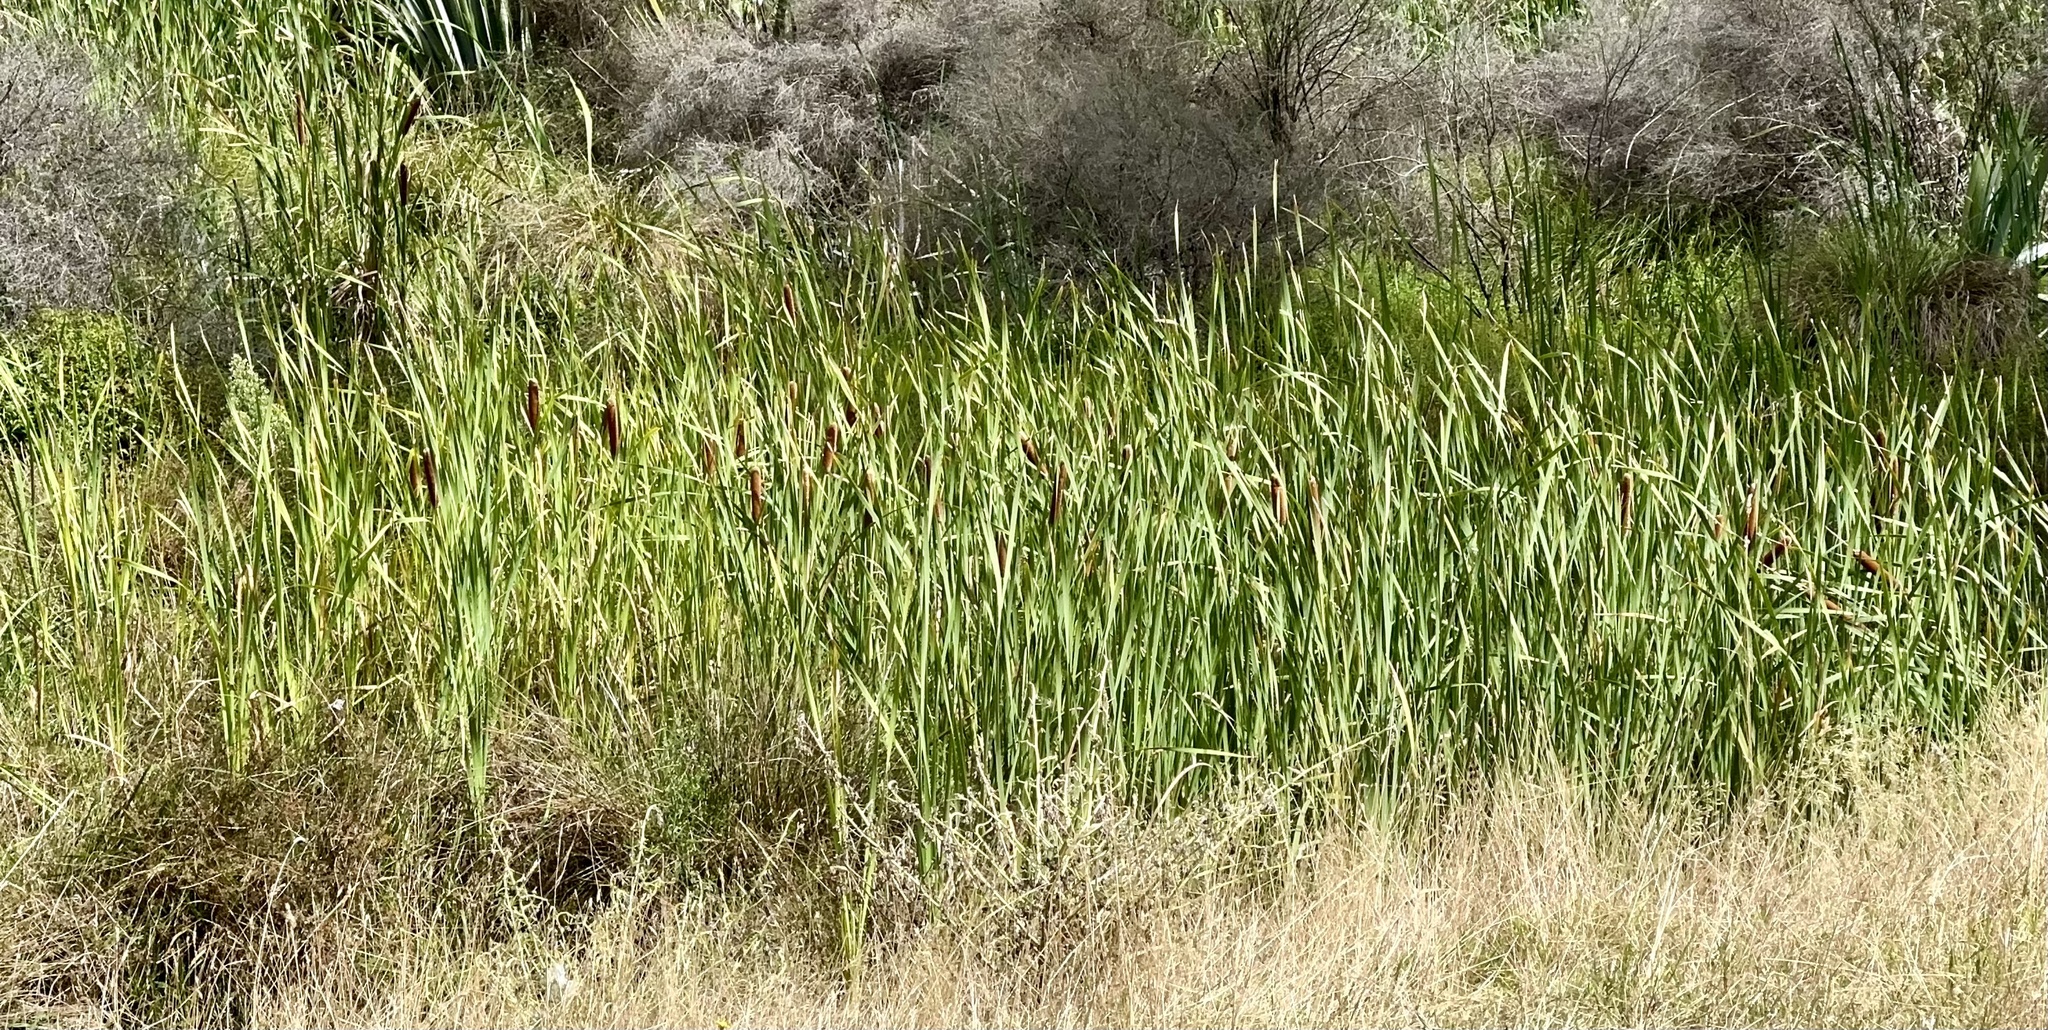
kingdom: Plantae
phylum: Tracheophyta
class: Liliopsida
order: Poales
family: Typhaceae
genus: Typha
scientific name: Typha orientalis
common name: Bullrush
